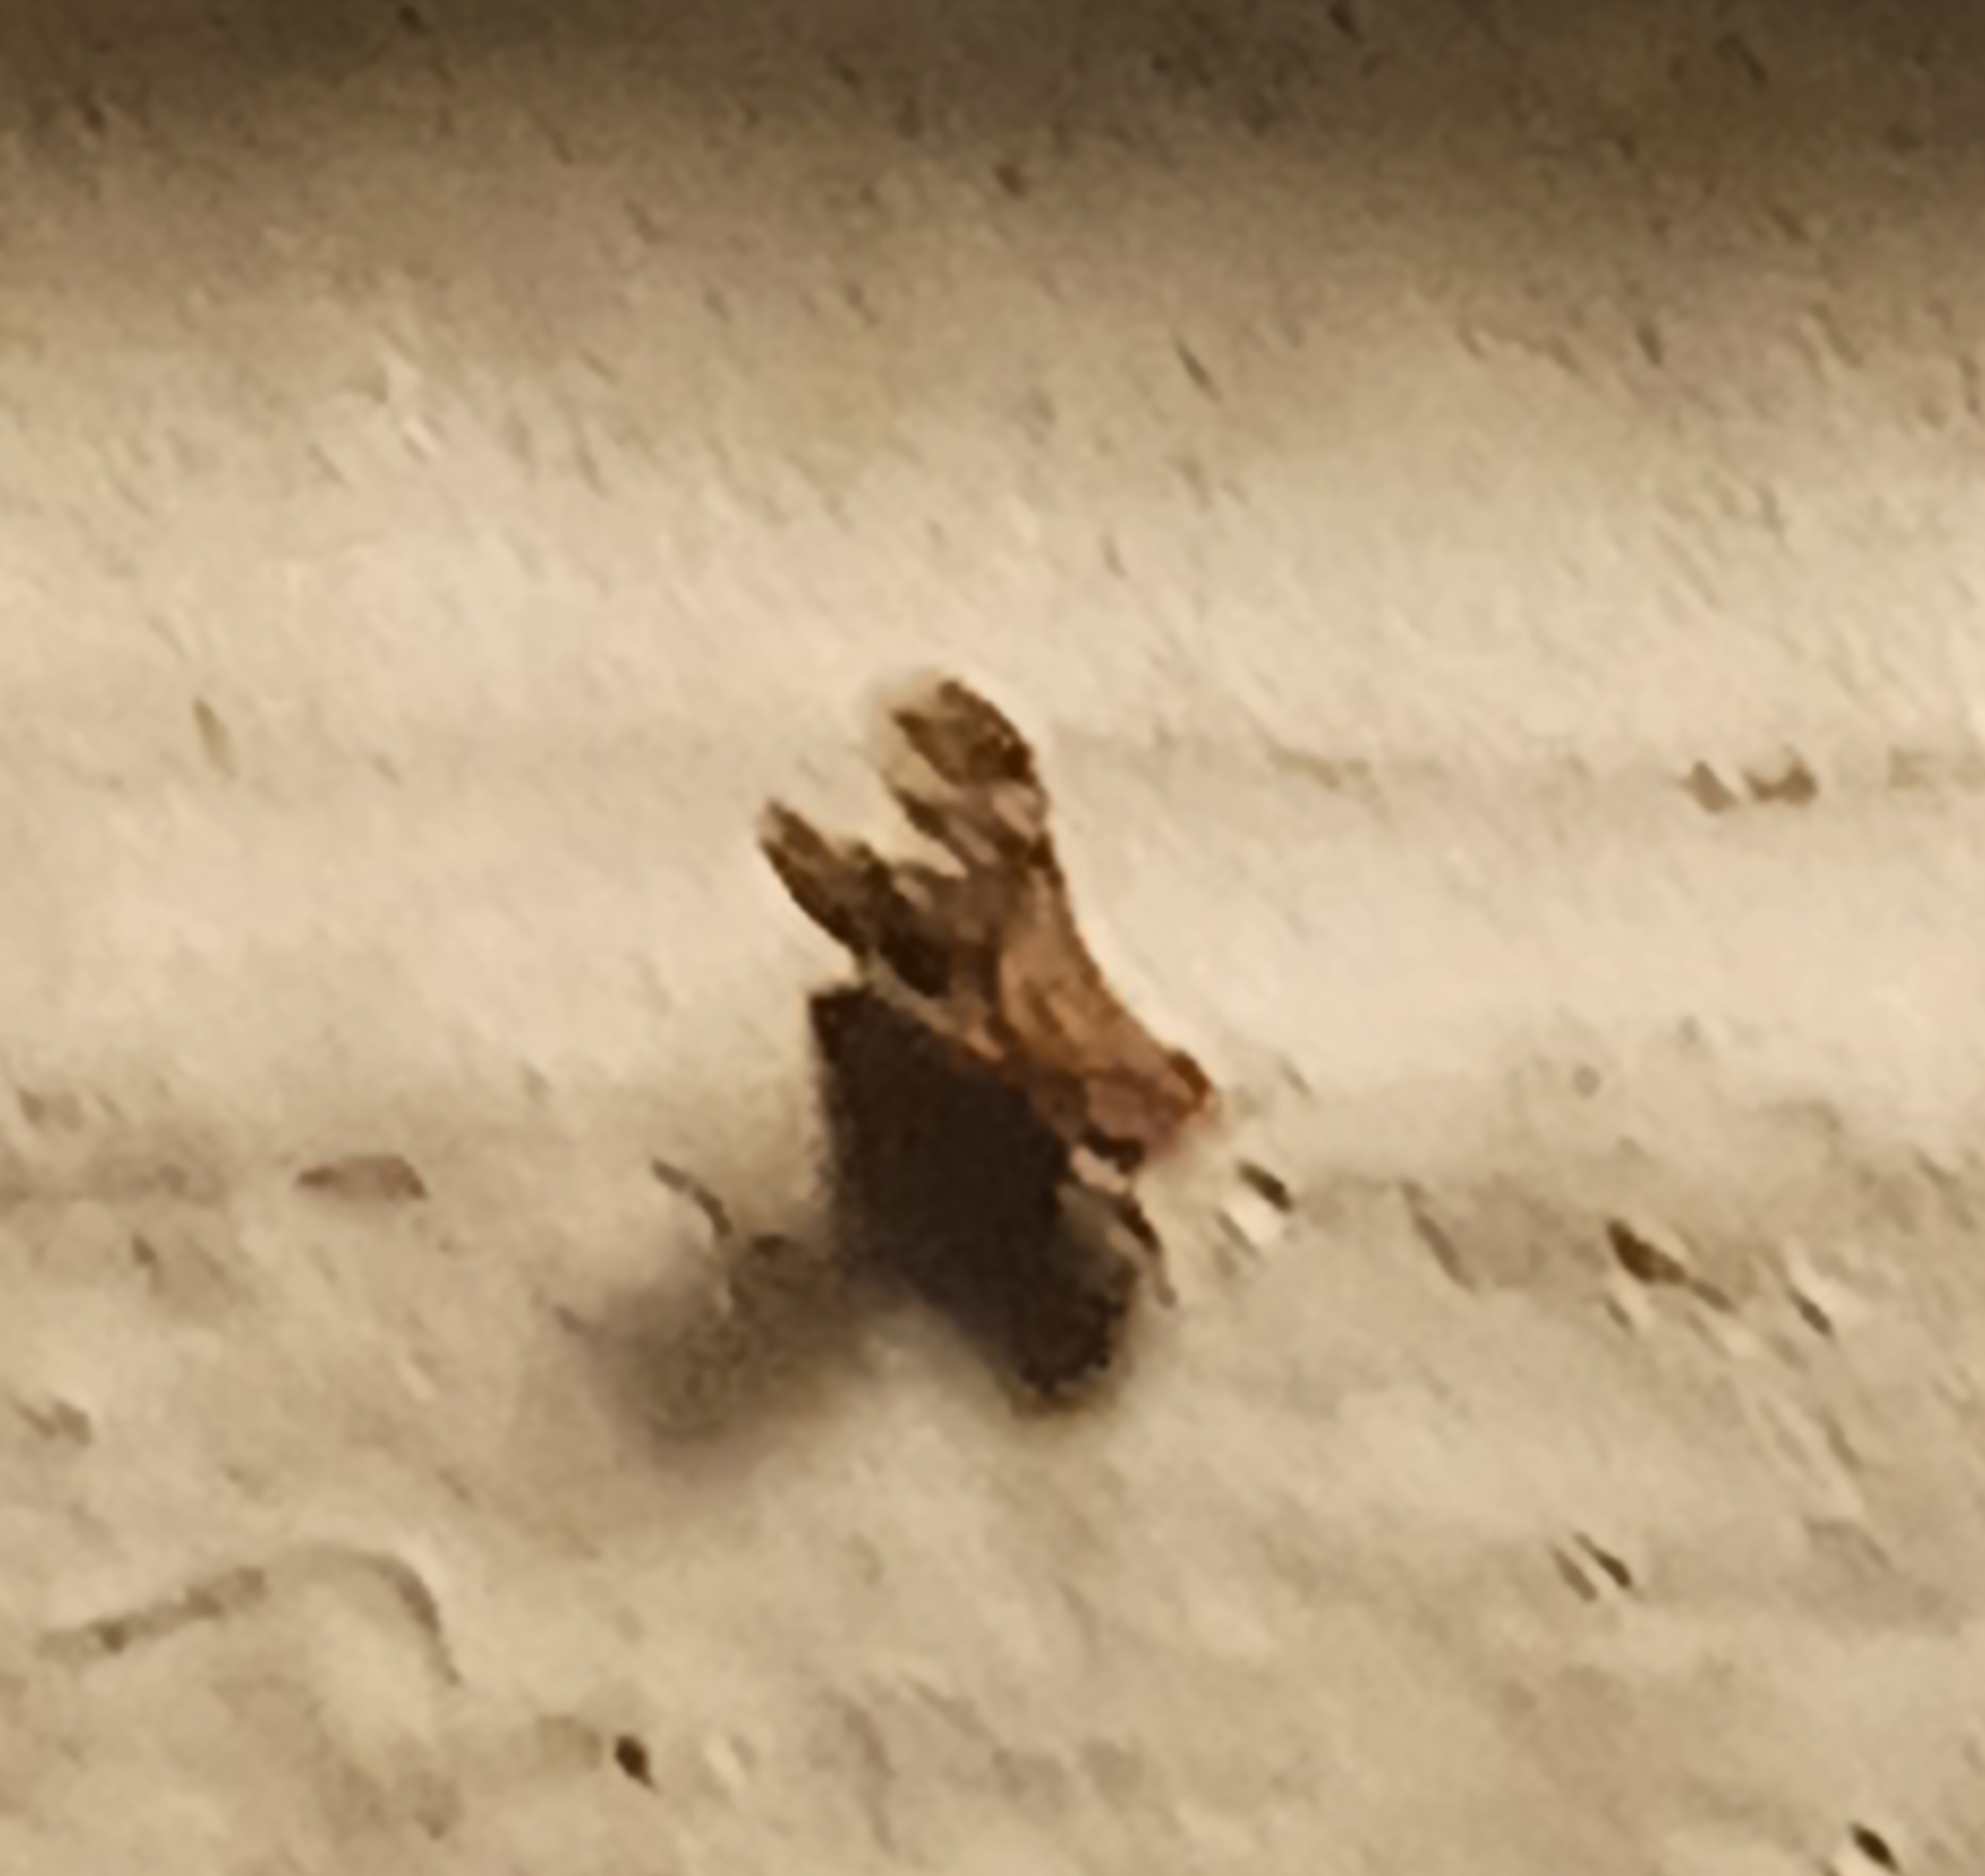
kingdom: Animalia
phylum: Arthropoda
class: Insecta
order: Diptera
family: Heleomyzidae
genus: Trixoscelis
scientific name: Trixoscelis ornata
